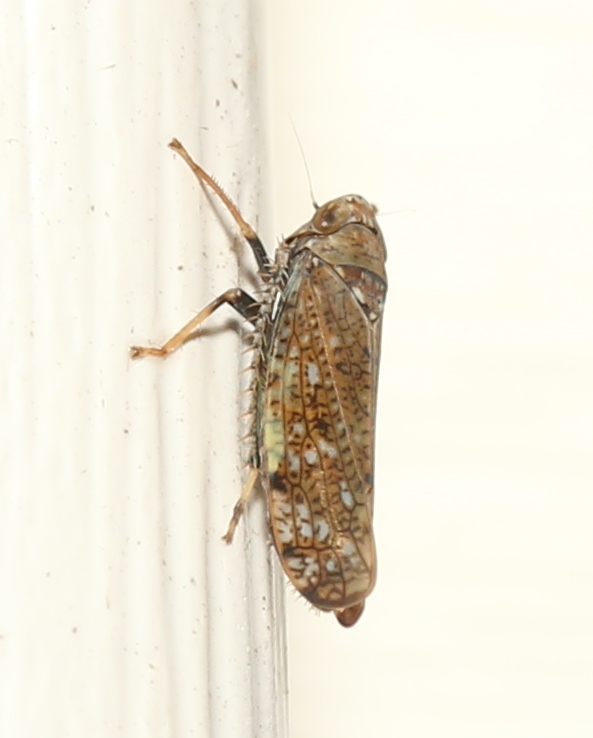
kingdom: Animalia
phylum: Arthropoda
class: Insecta
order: Hemiptera
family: Cicadellidae
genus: Orientus
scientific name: Orientus ishidae
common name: Japanese leafhopper
